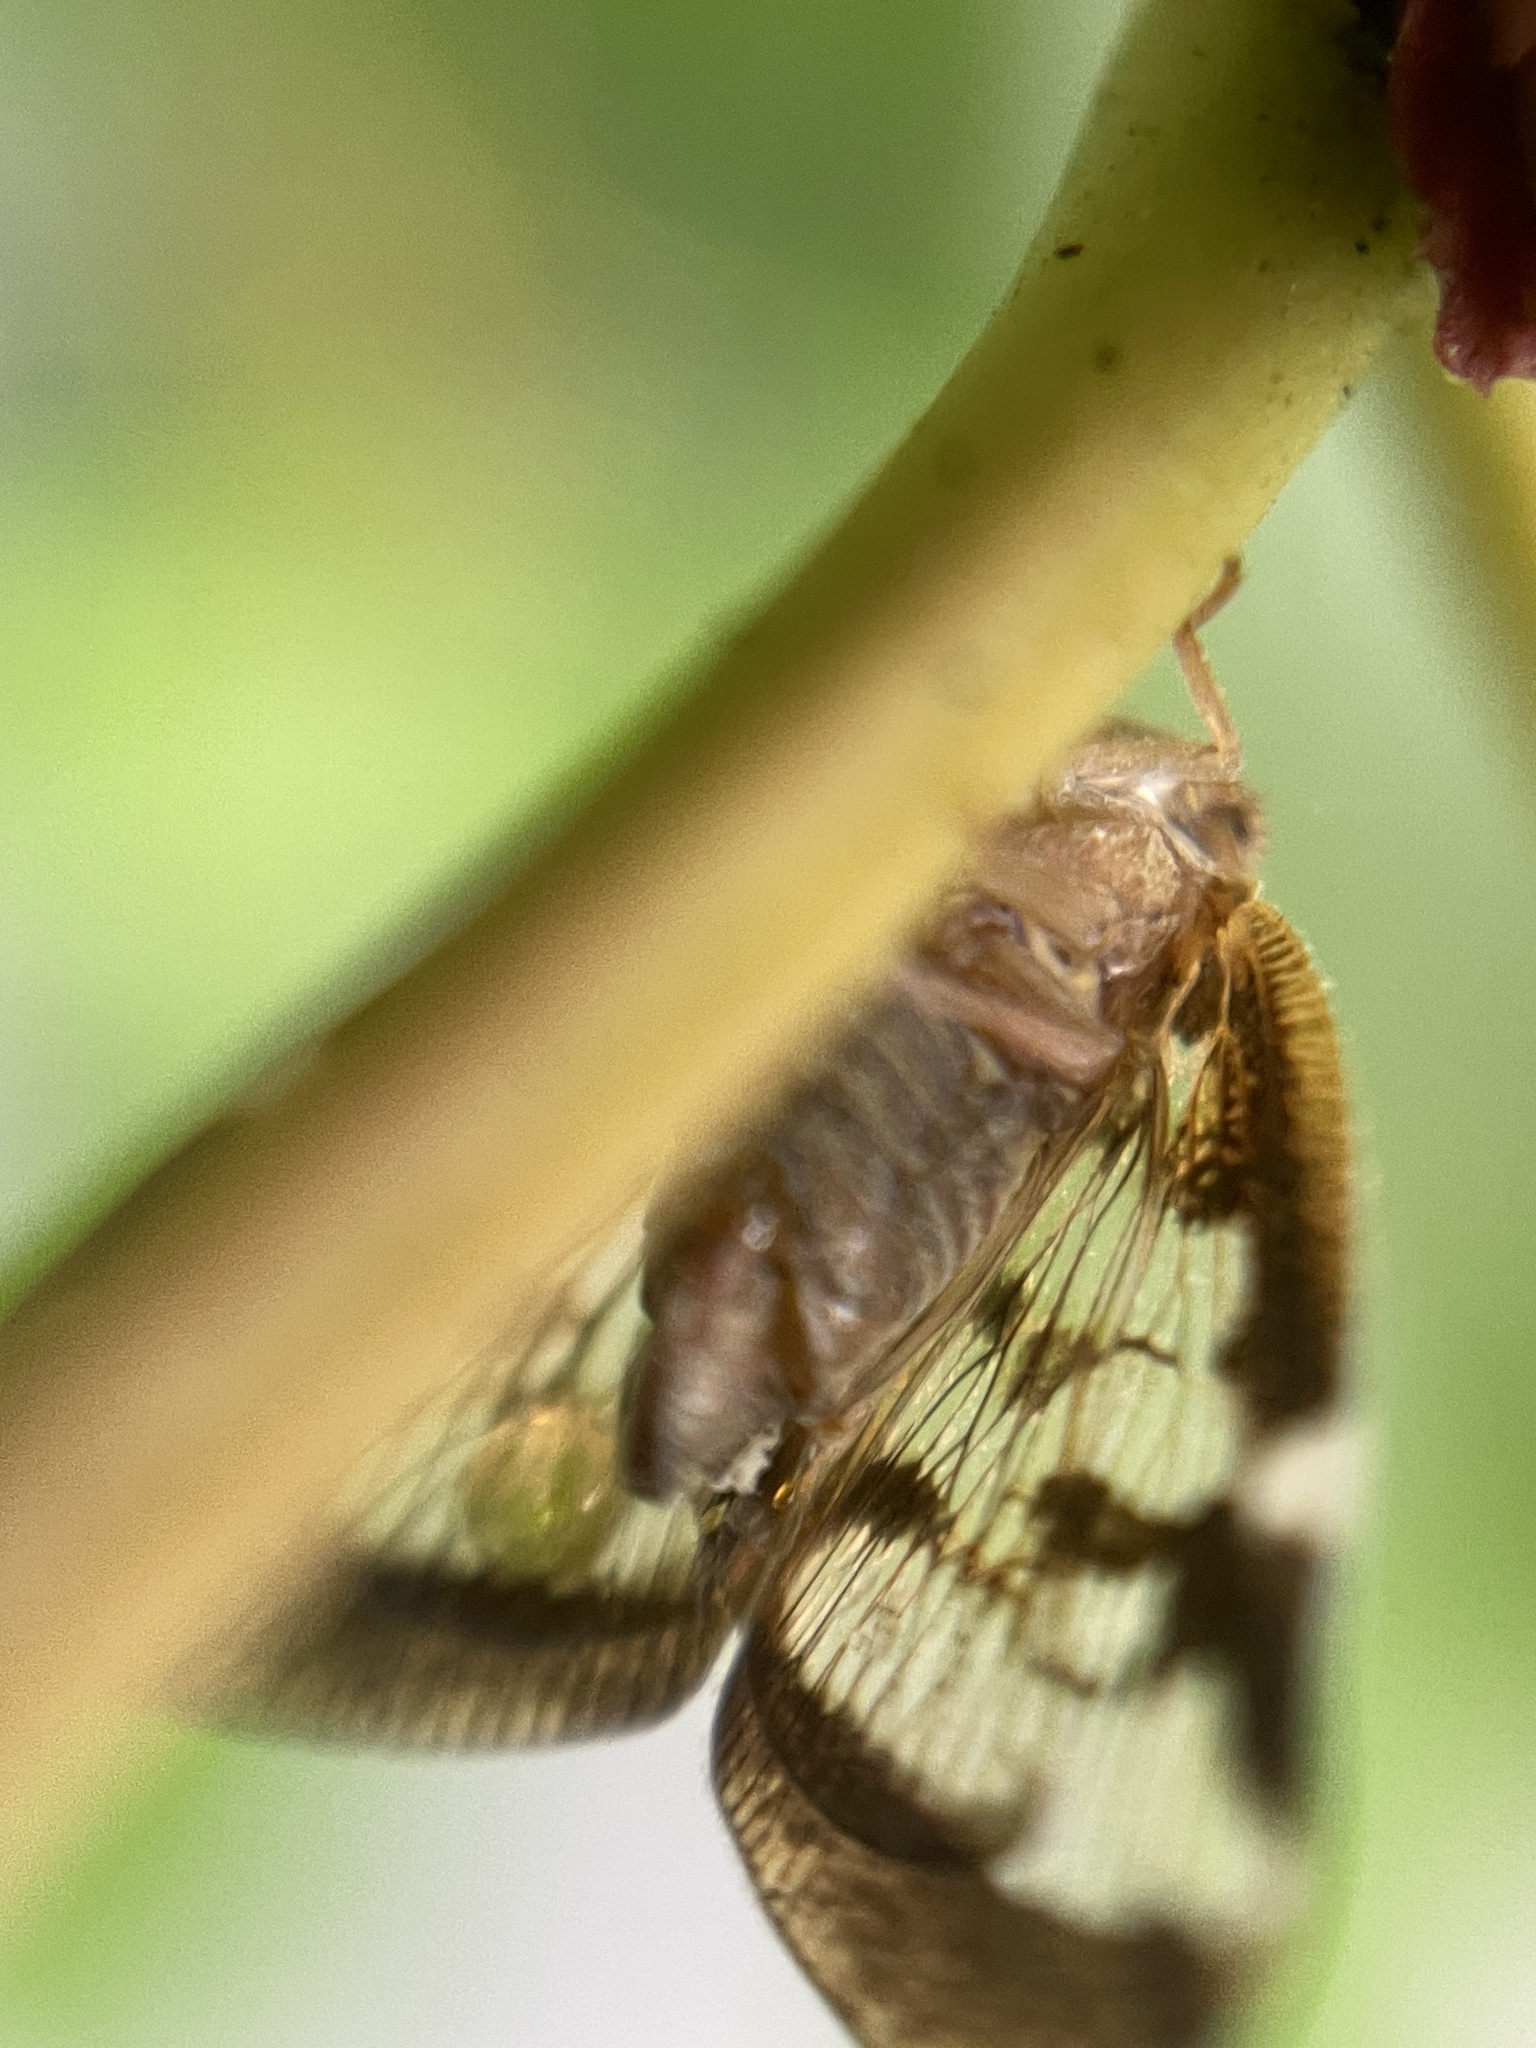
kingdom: Animalia
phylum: Arthropoda
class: Insecta
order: Hemiptera
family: Ricaniidae
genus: Scolypopa
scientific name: Scolypopa australis
